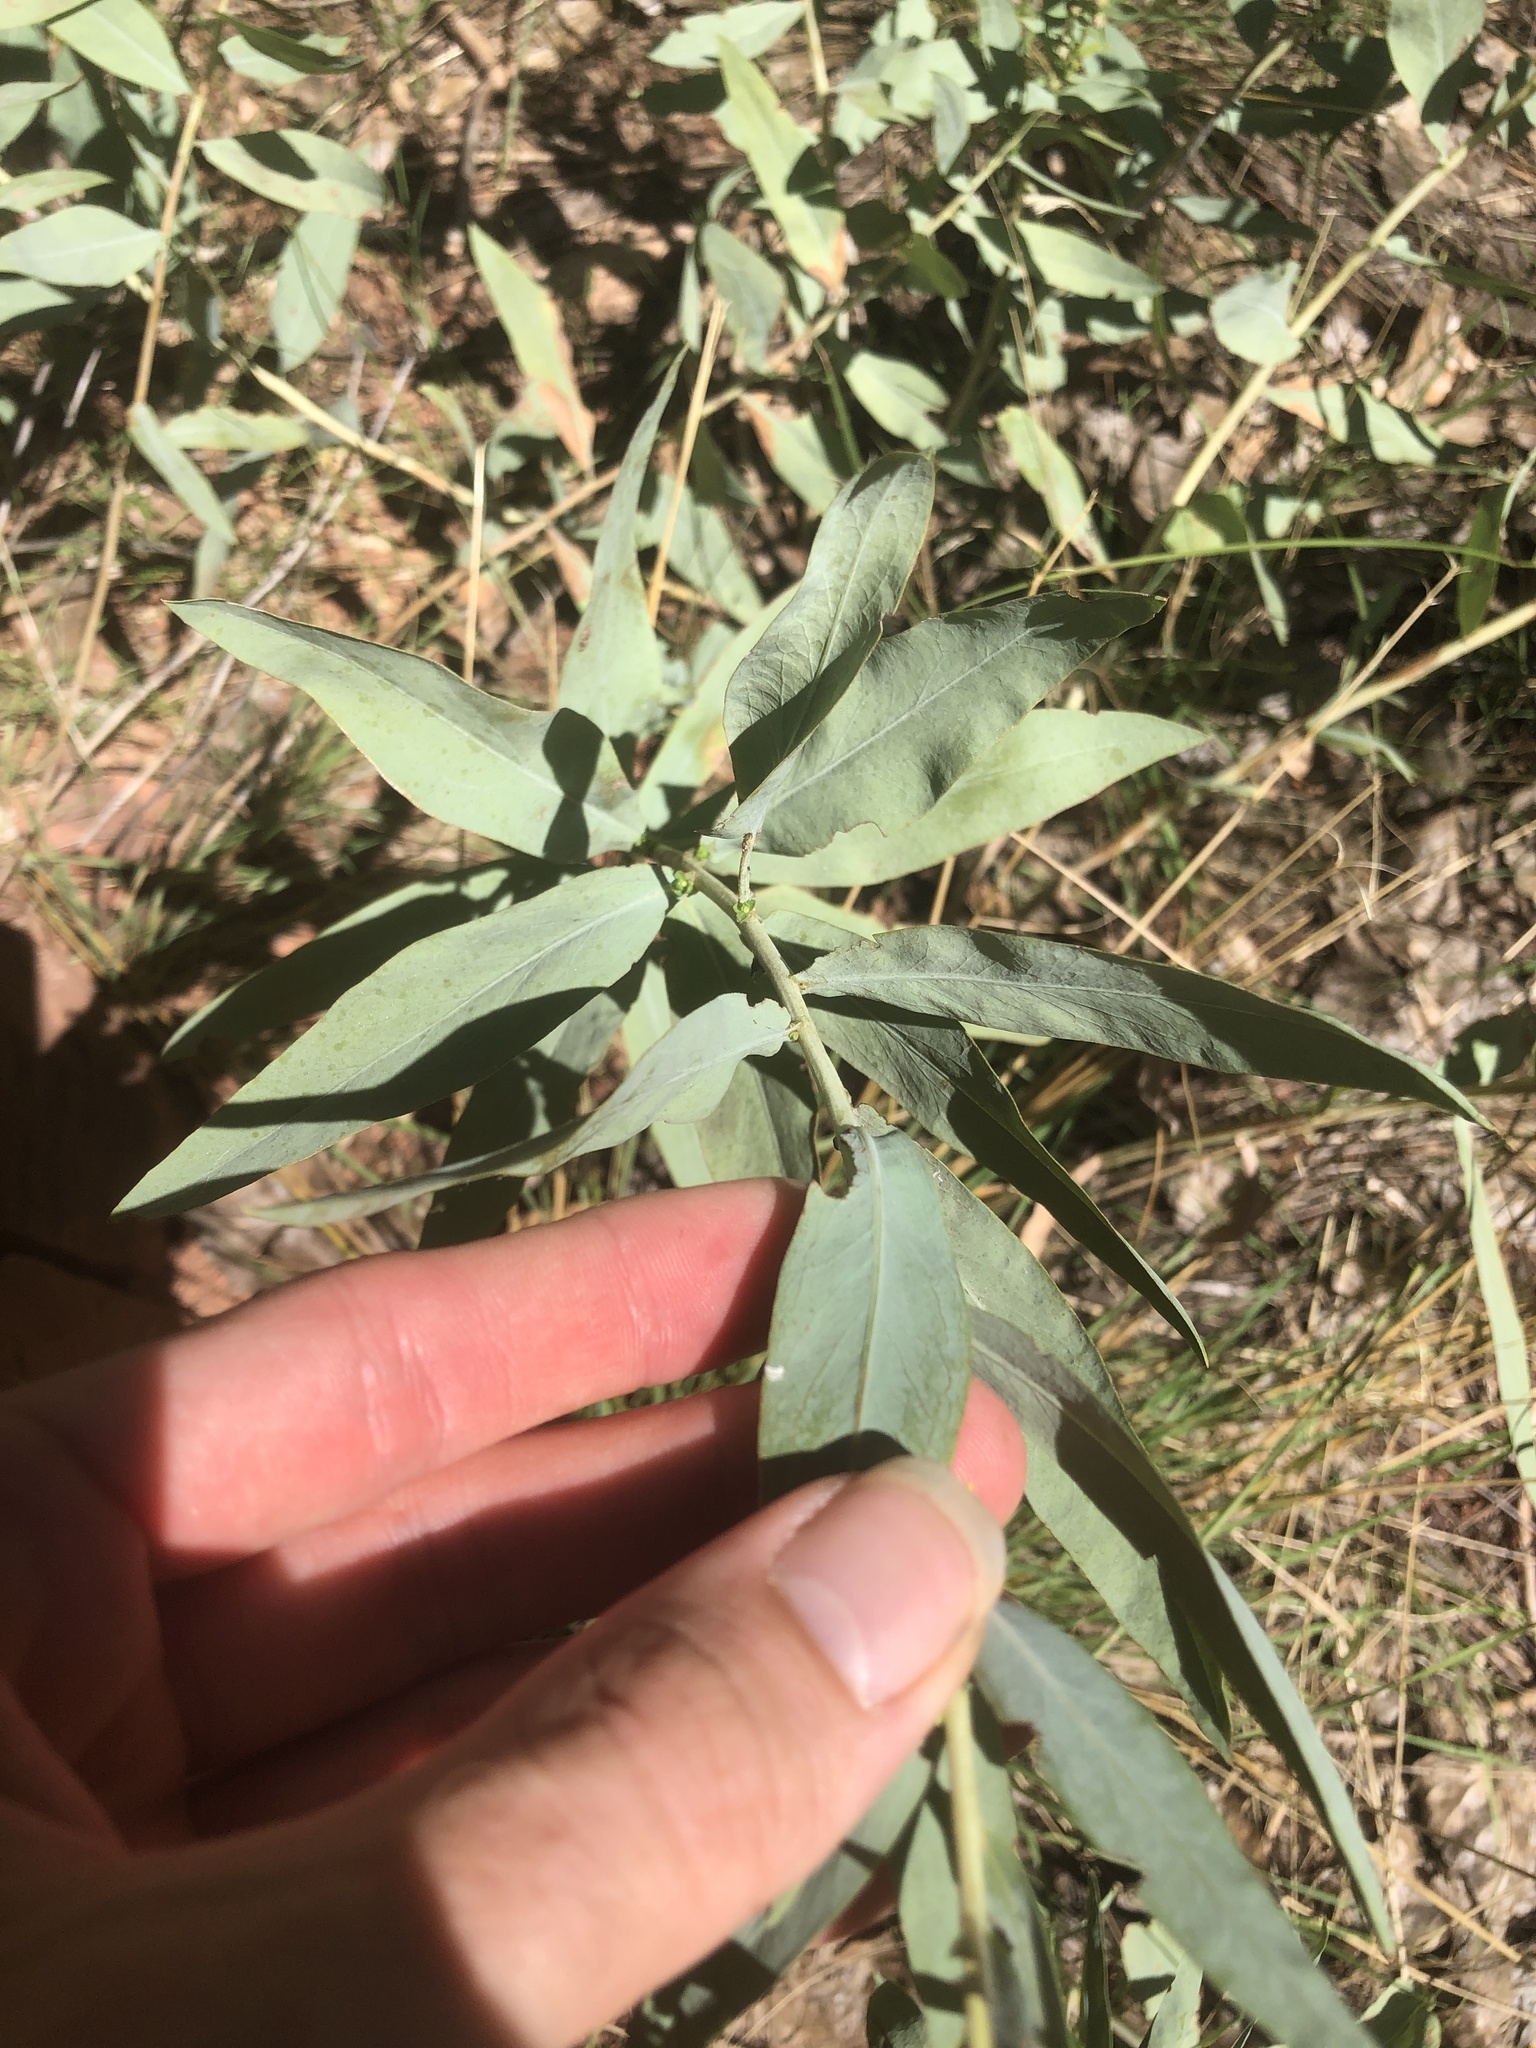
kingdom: Plantae
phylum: Tracheophyta
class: Magnoliopsida
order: Asterales
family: Asteraceae
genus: Eurybia
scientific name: Eurybia glauca
